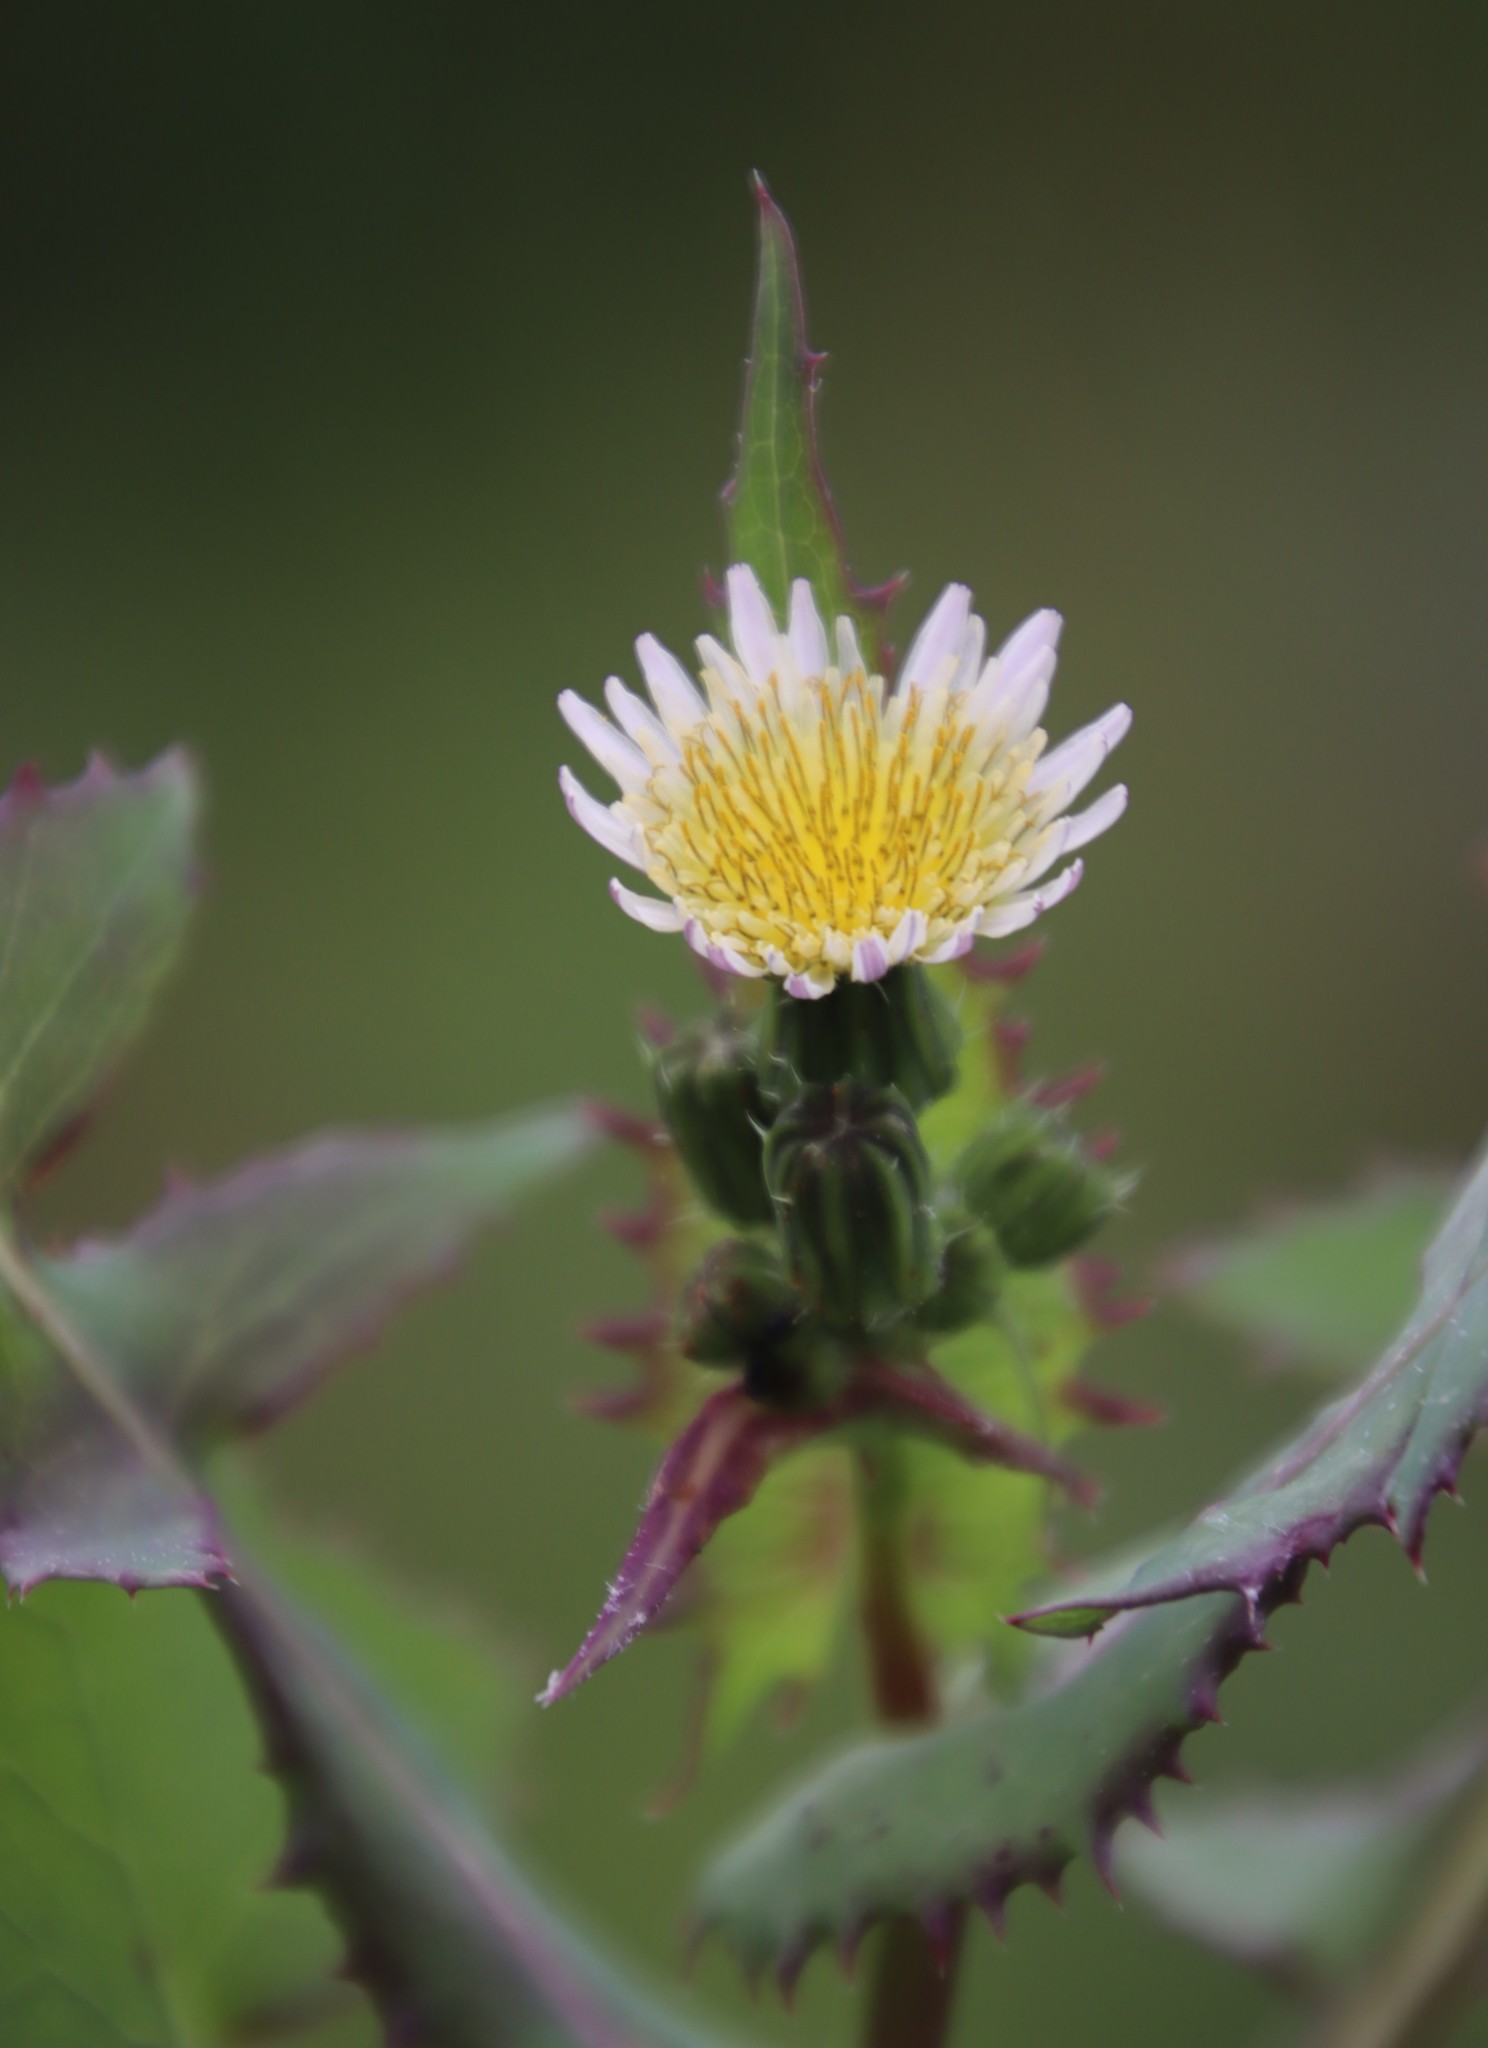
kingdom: Plantae
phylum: Tracheophyta
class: Magnoliopsida
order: Asterales
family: Asteraceae
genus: Sonchus
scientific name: Sonchus oleraceus
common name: Common sowthistle
